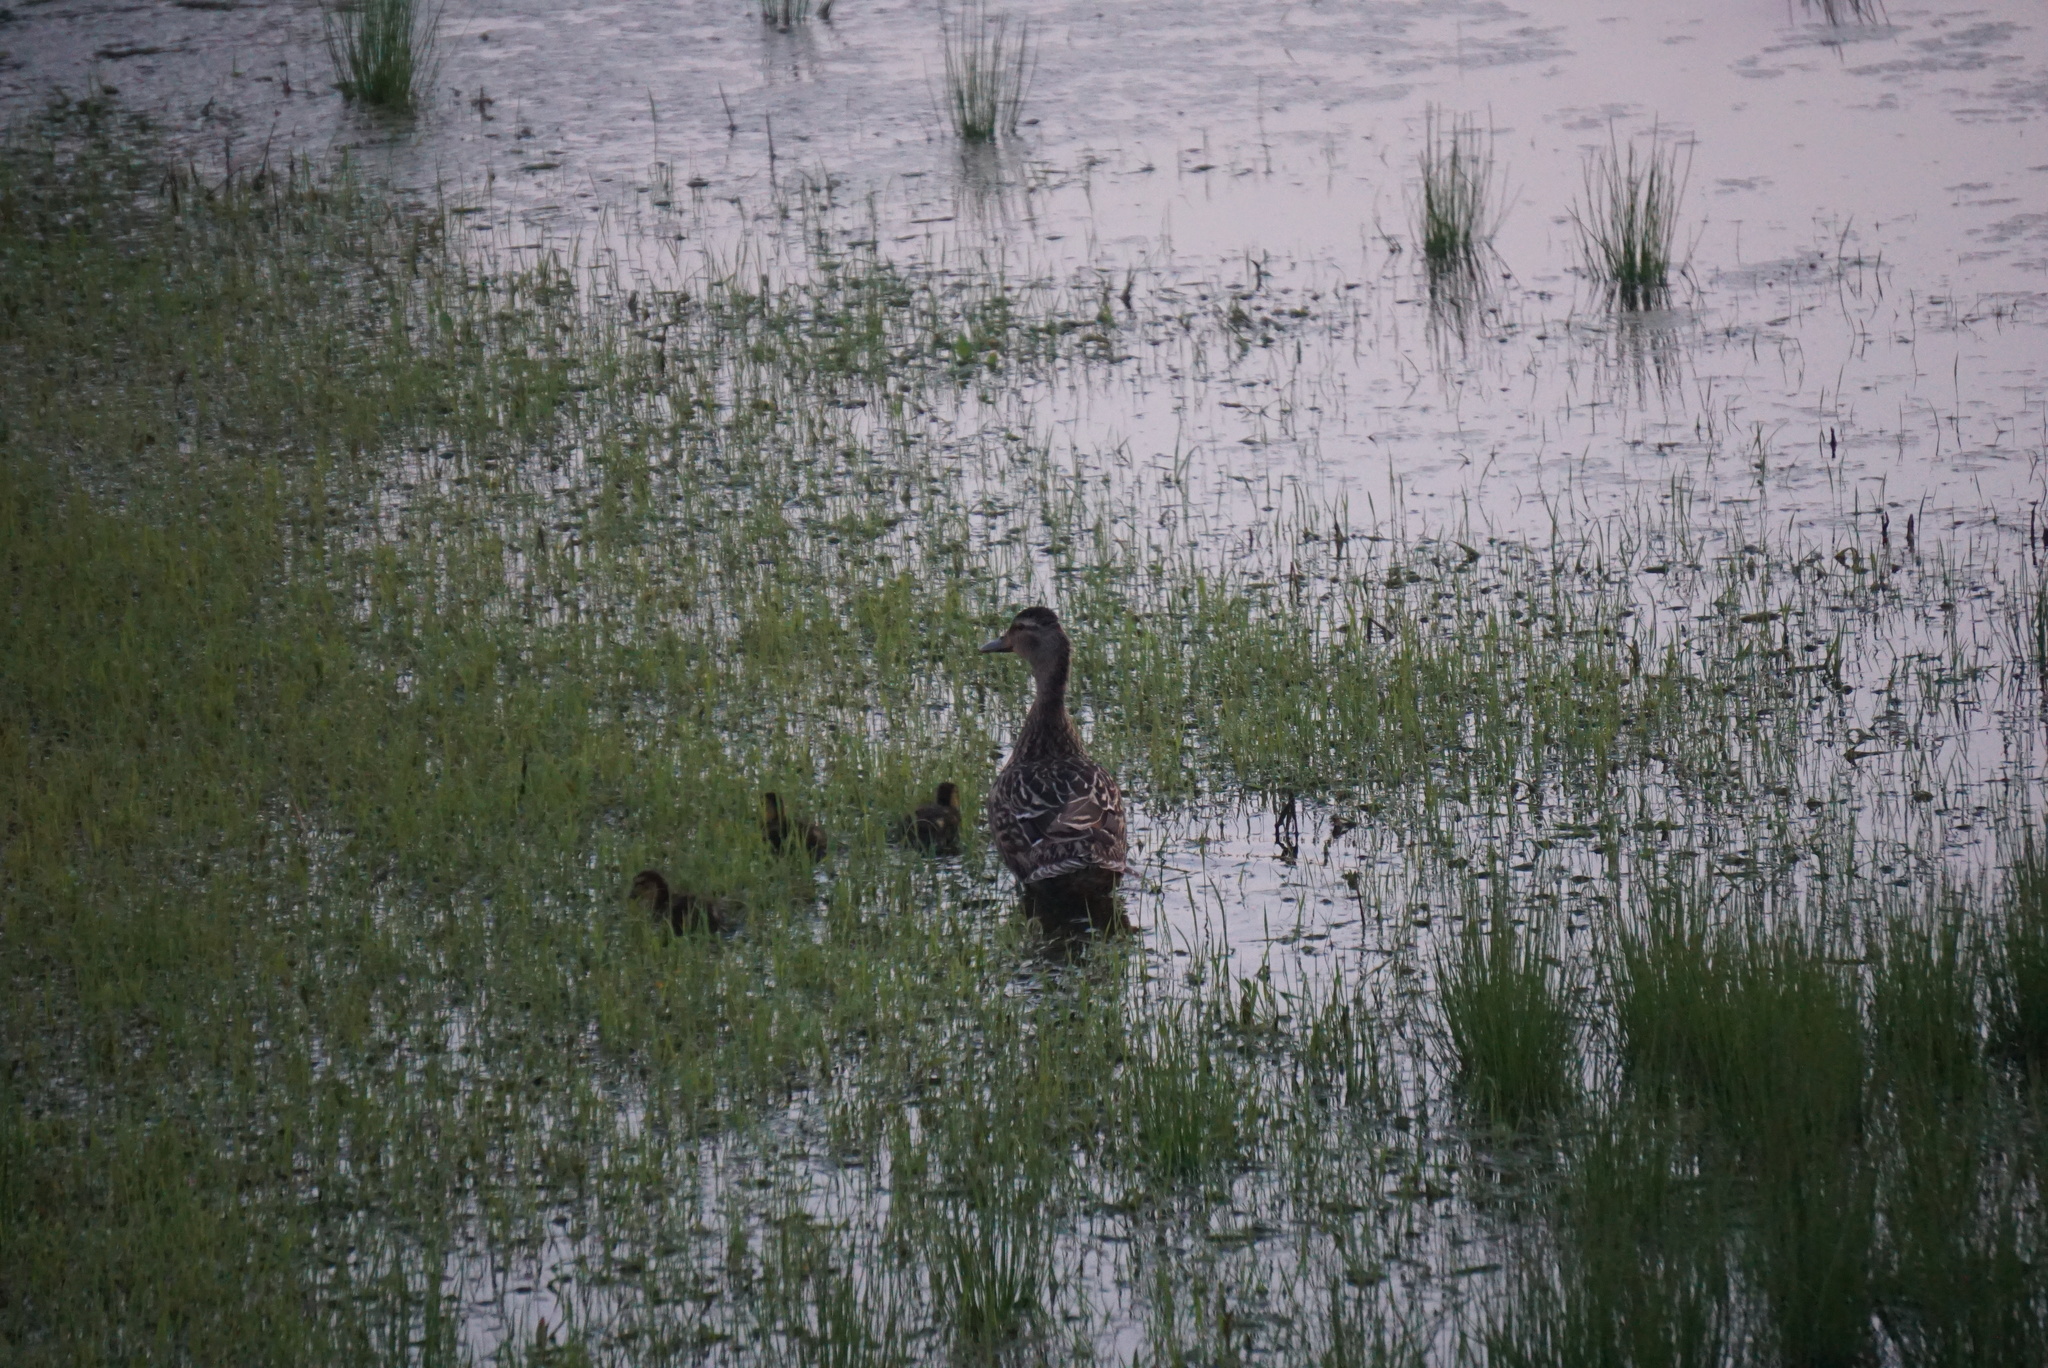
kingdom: Animalia
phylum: Chordata
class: Aves
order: Anseriformes
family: Anatidae
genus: Anas
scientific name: Anas platyrhynchos
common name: Mallard
